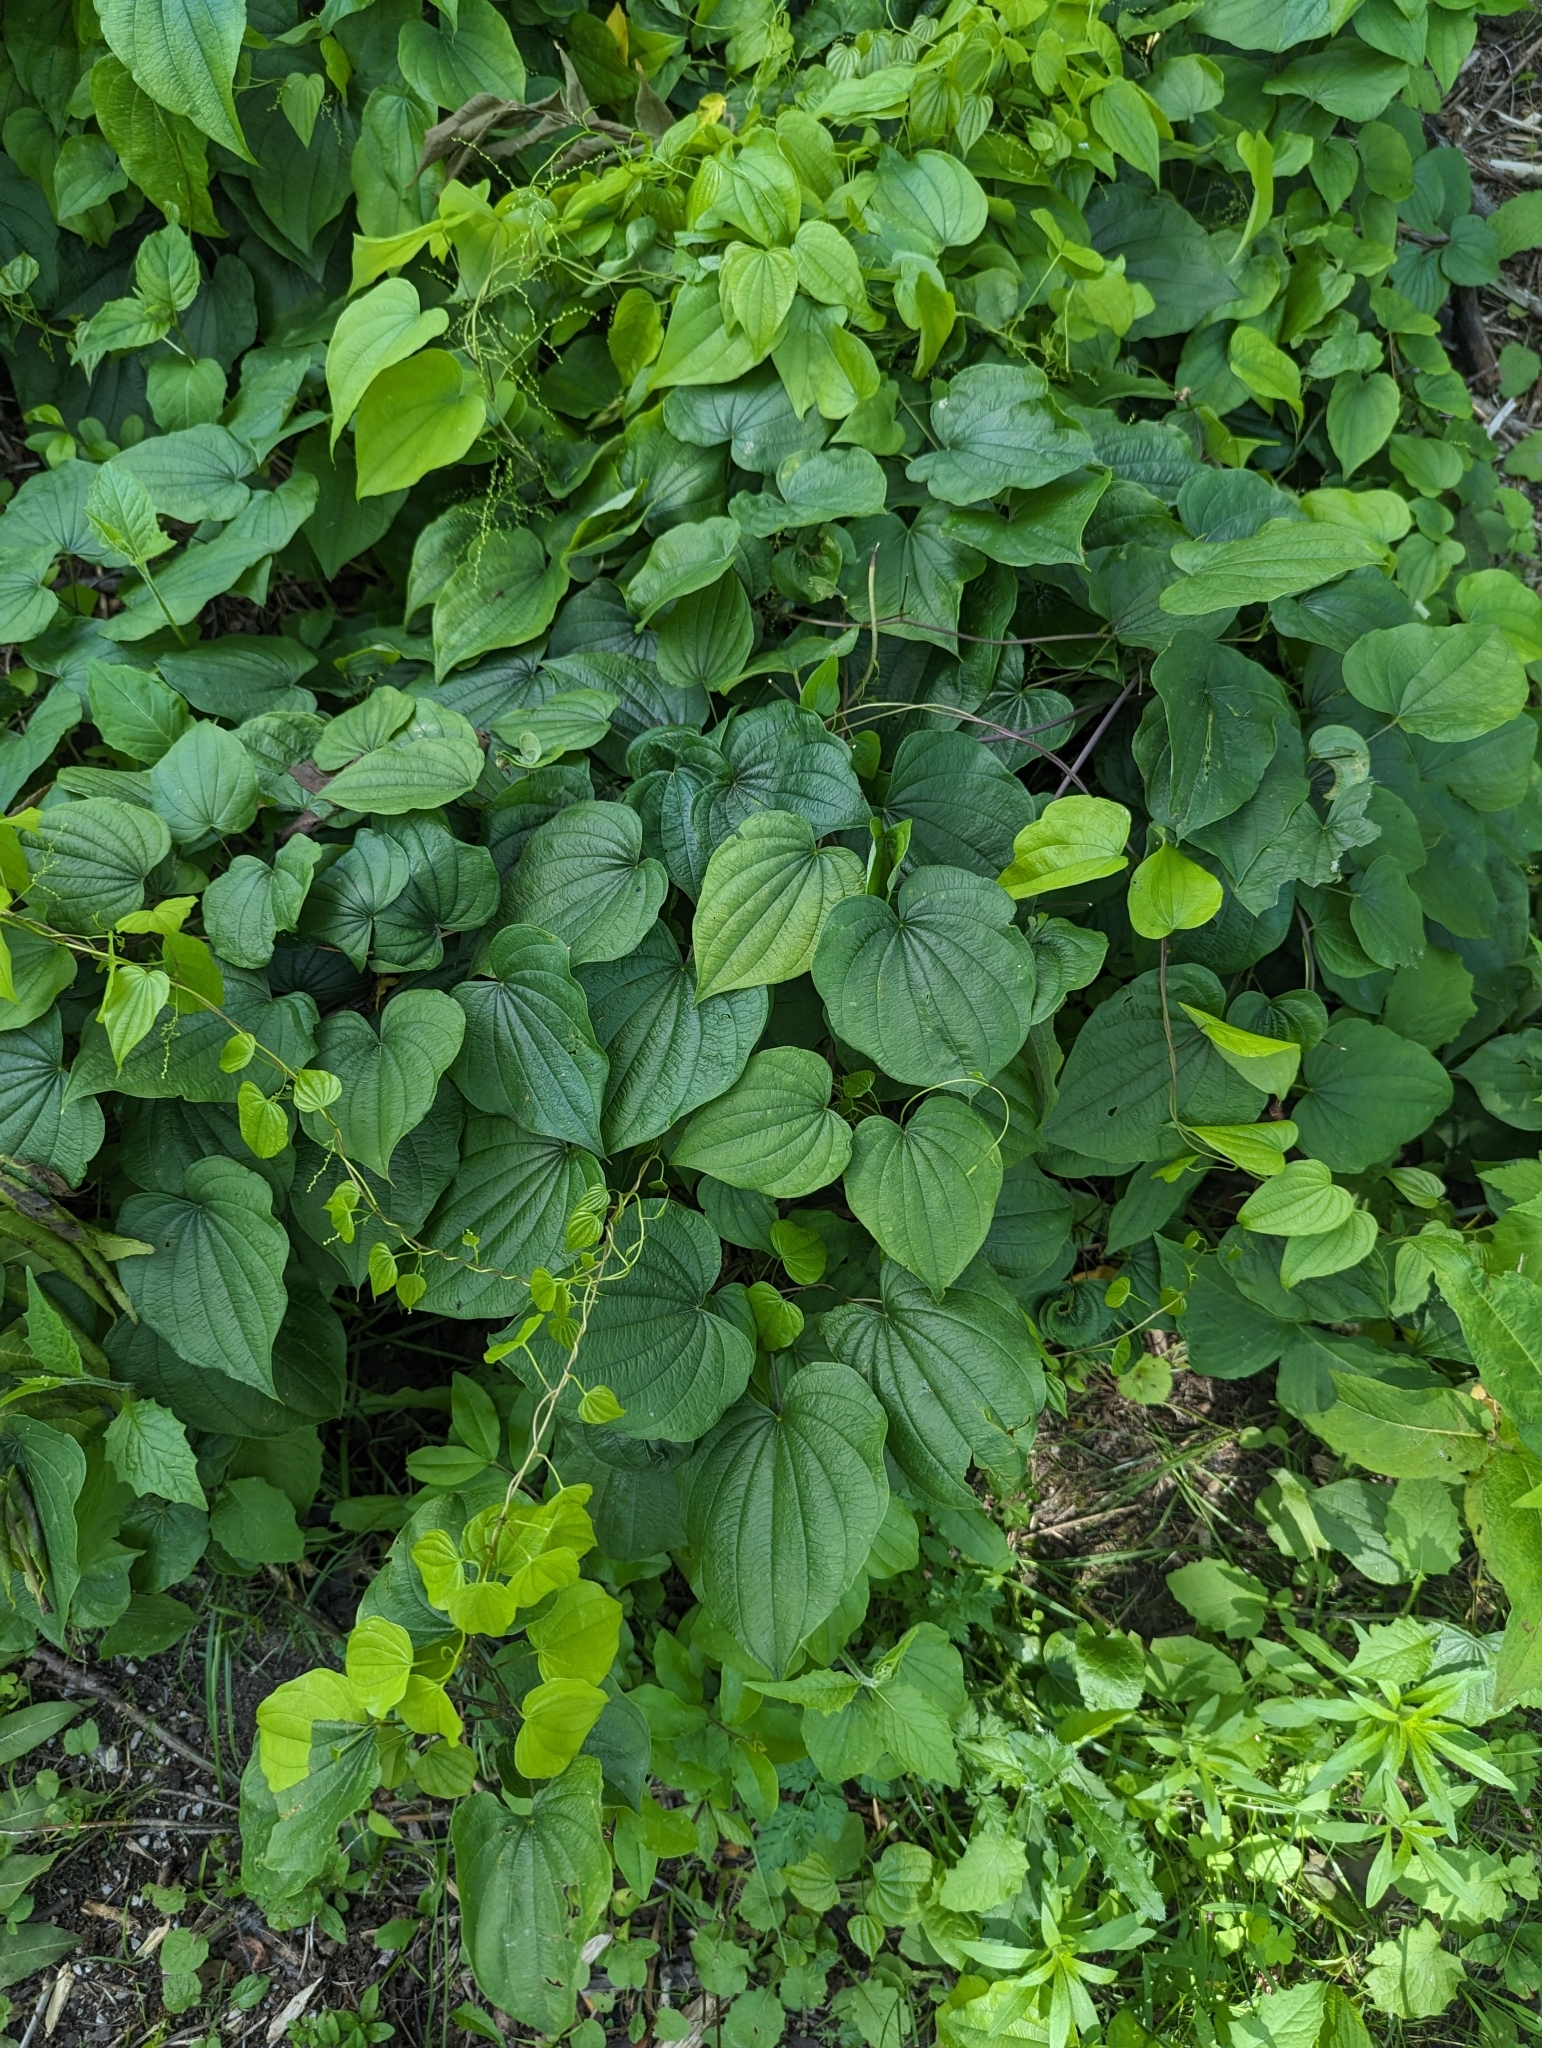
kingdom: Plantae
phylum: Tracheophyta
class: Liliopsida
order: Dioscoreales
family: Dioscoreaceae
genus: Dioscorea
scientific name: Dioscorea villosa
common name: Wild yam
